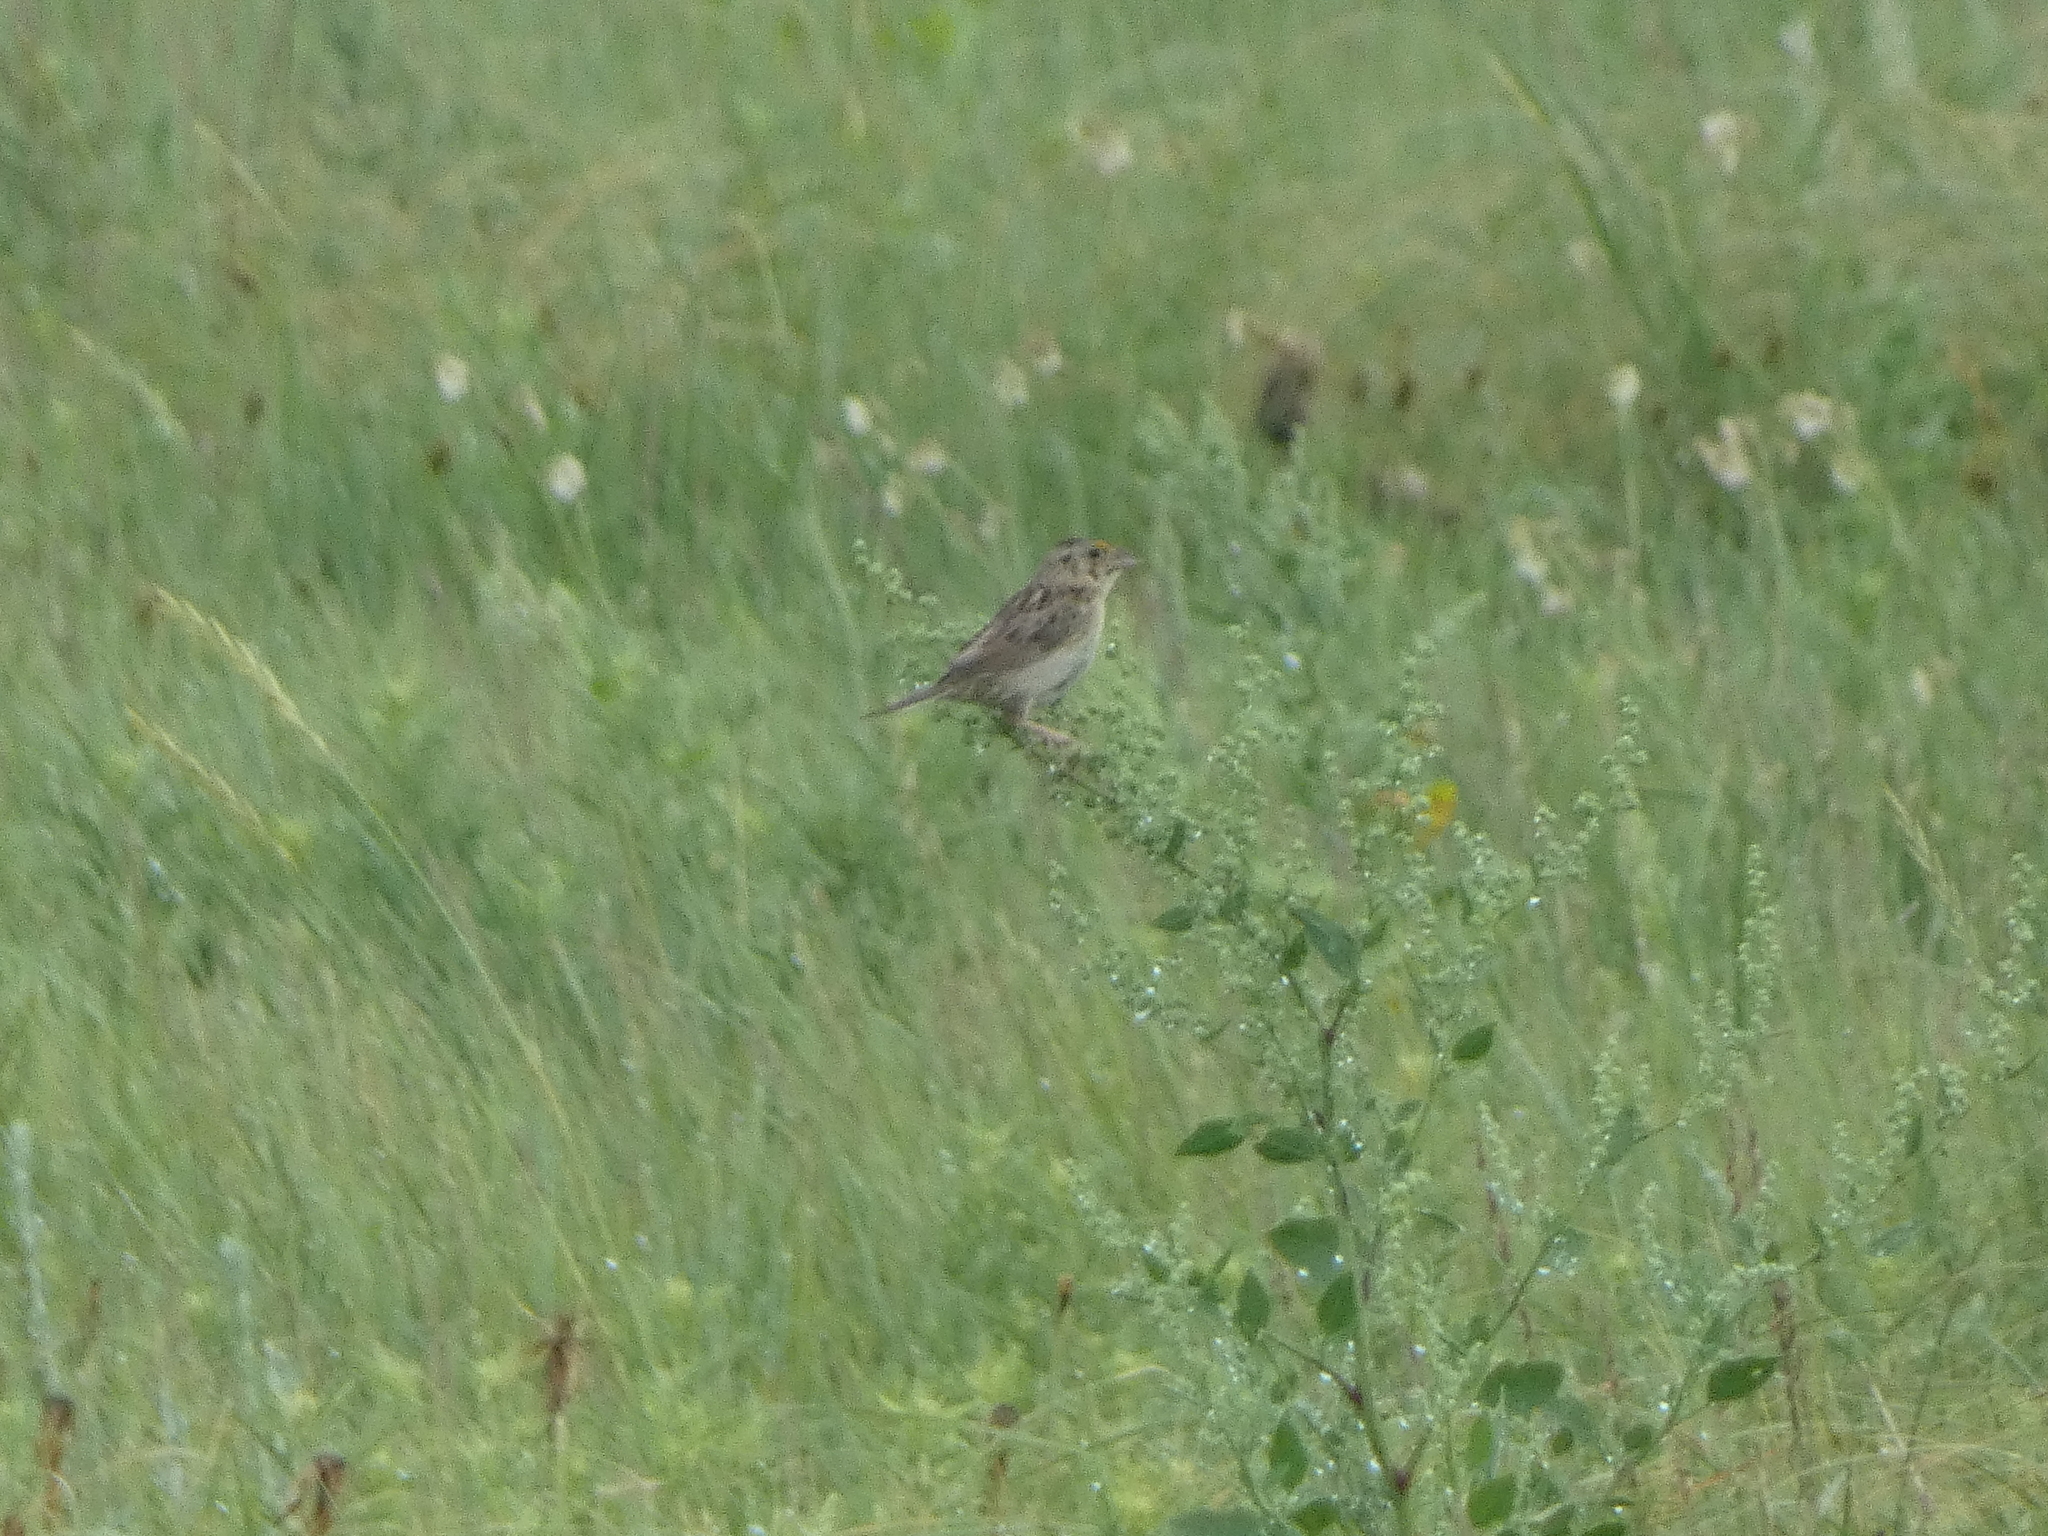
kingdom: Animalia
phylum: Chordata
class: Aves
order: Passeriformes
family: Passerellidae
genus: Ammodramus
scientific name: Ammodramus savannarum
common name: Grasshopper sparrow
